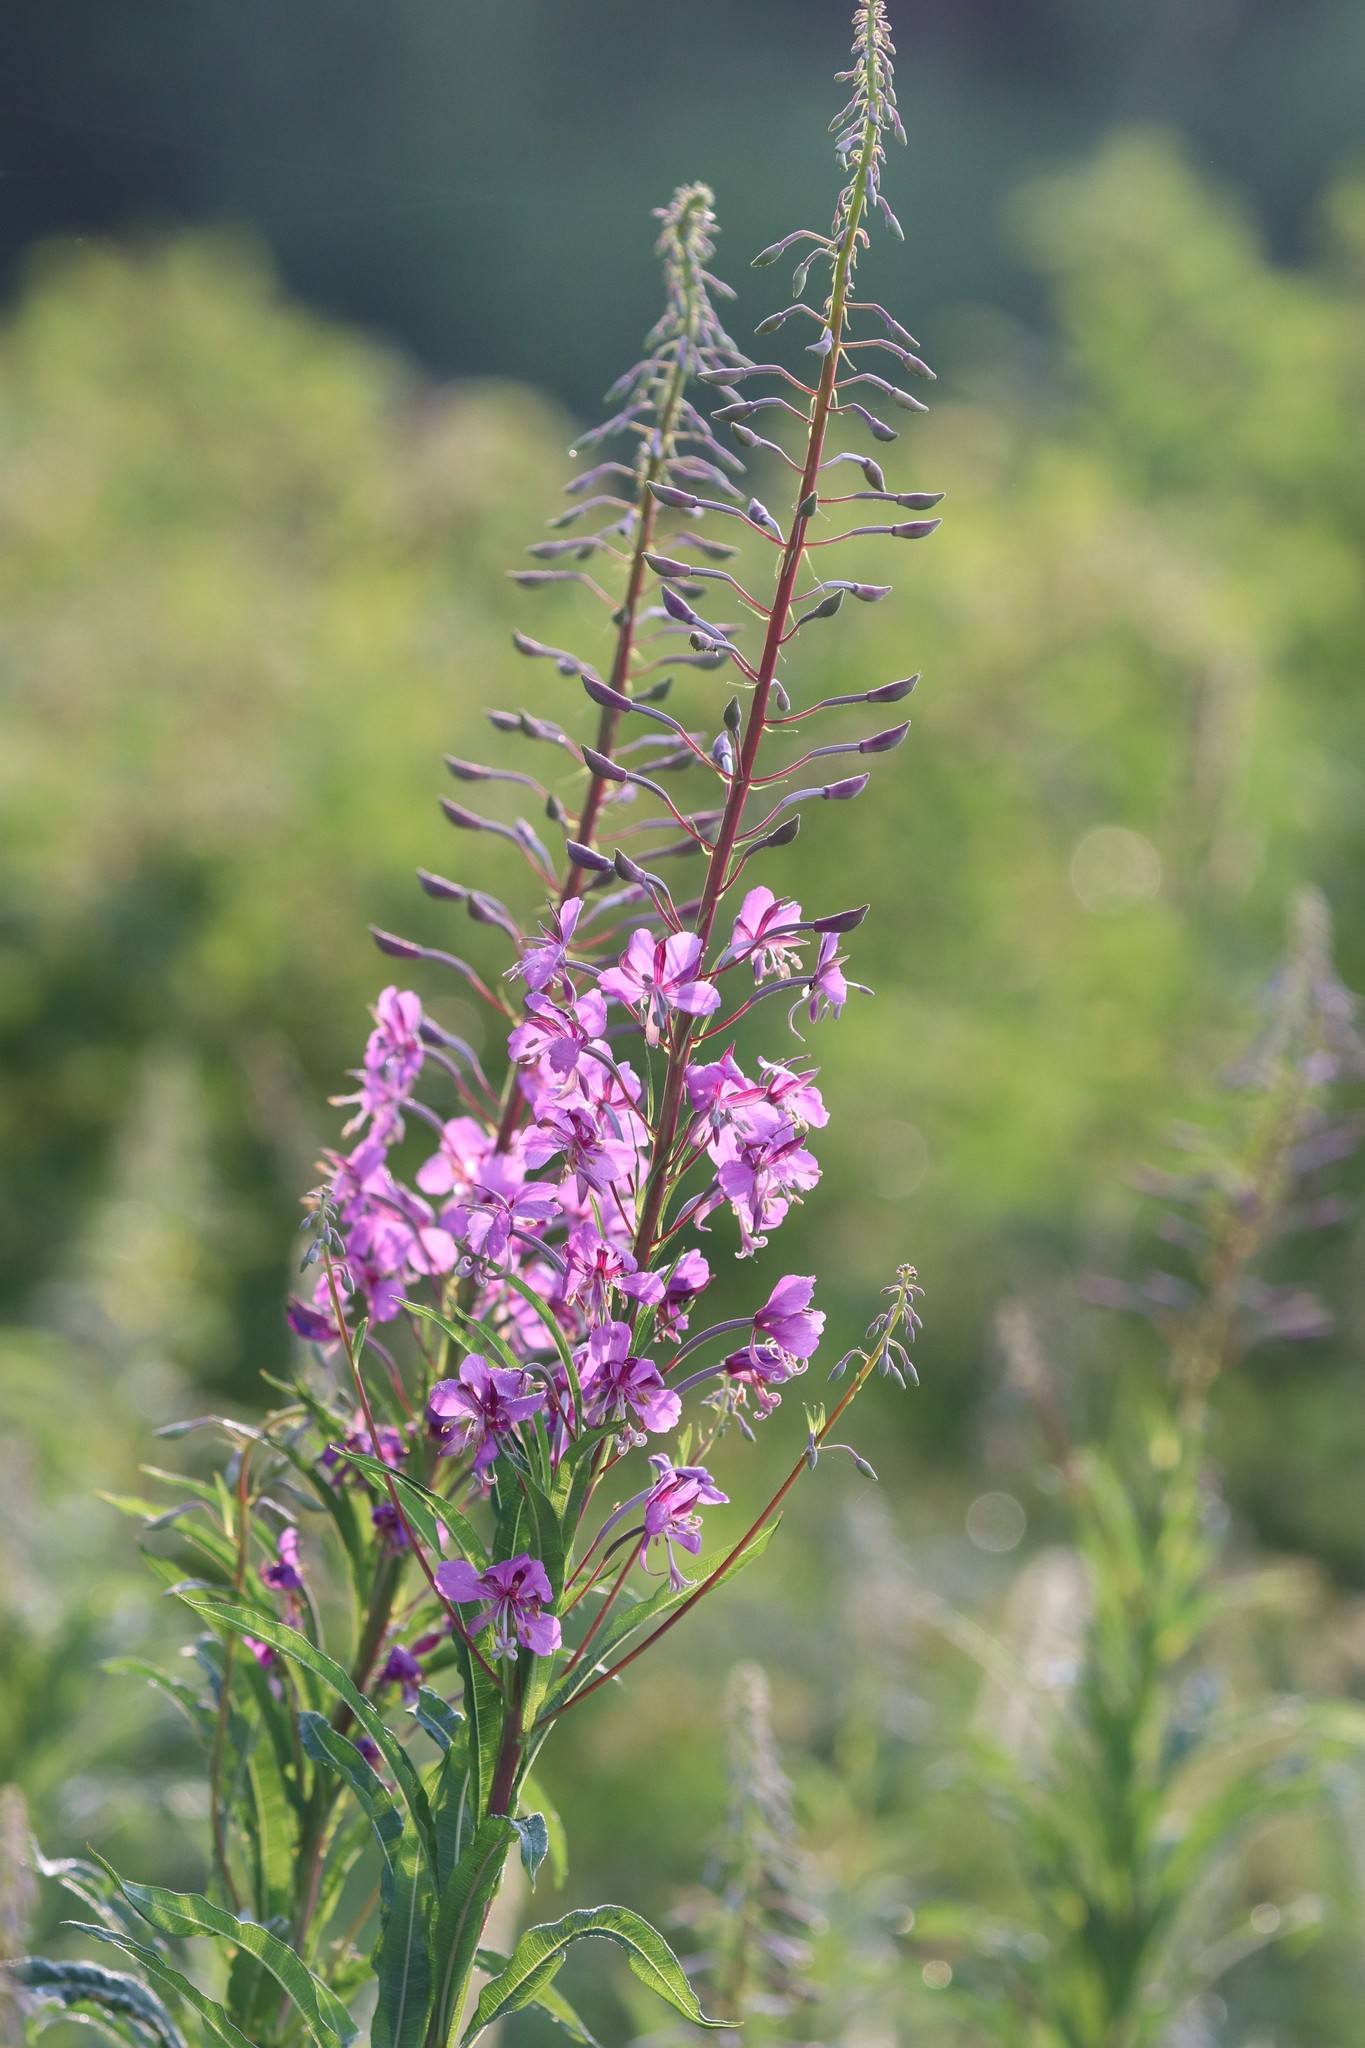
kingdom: Plantae
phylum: Tracheophyta
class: Magnoliopsida
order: Myrtales
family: Onagraceae
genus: Chamaenerion
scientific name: Chamaenerion angustifolium
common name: Fireweed
